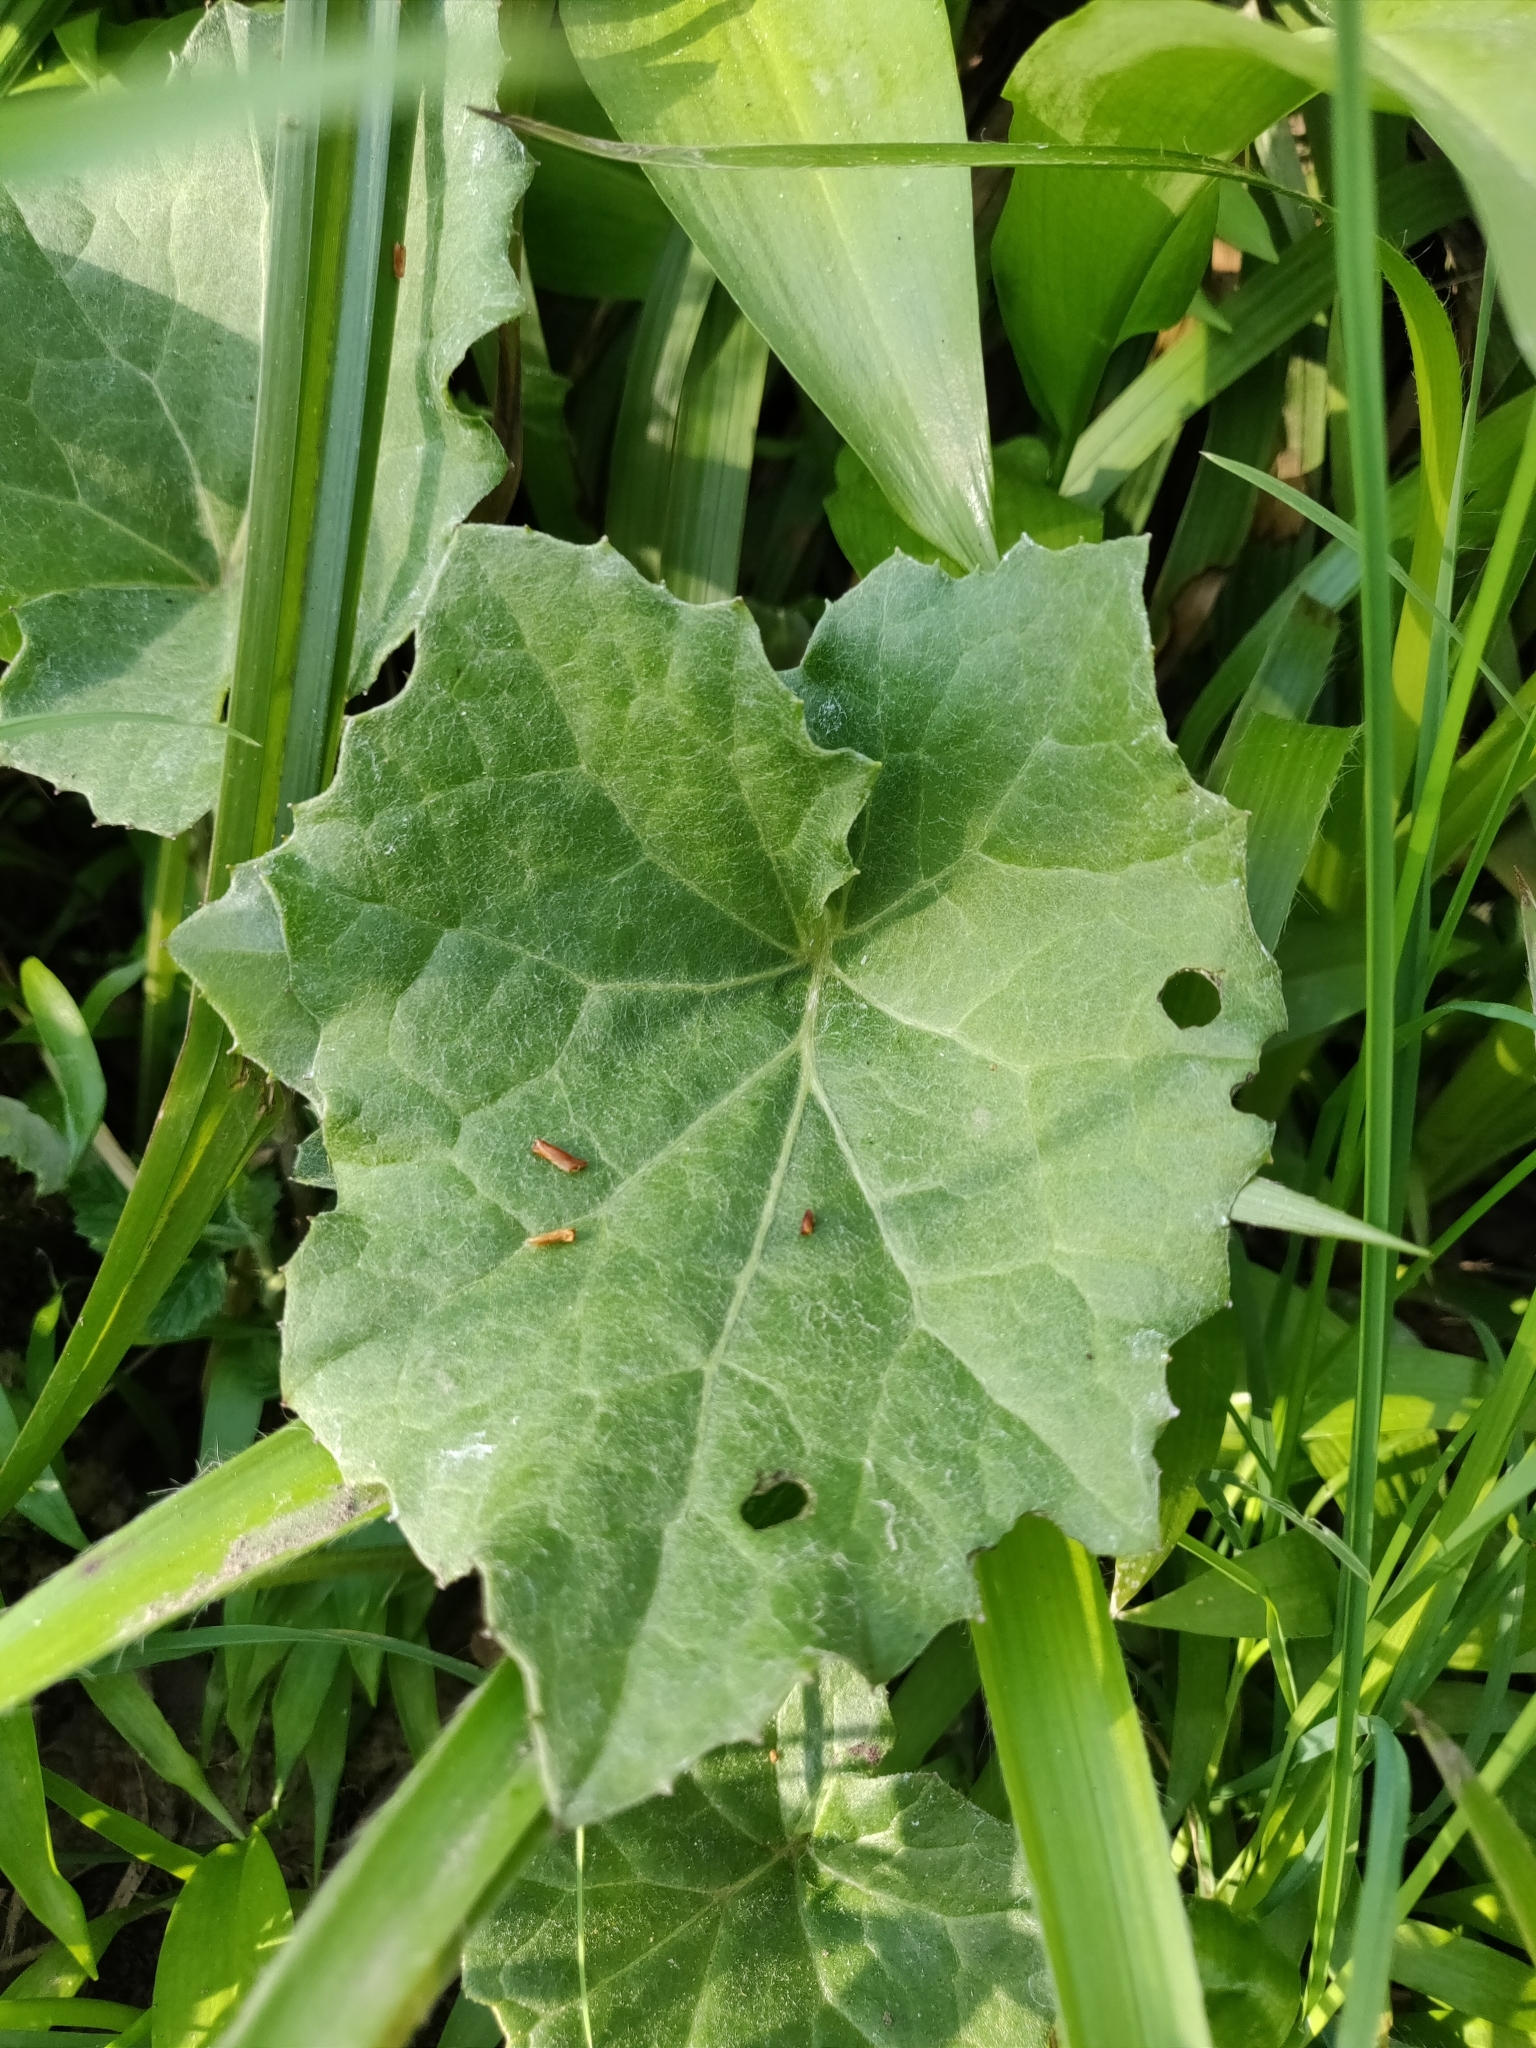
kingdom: Plantae
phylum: Tracheophyta
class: Magnoliopsida
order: Asterales
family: Asteraceae
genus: Tussilago
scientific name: Tussilago farfara
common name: Coltsfoot
